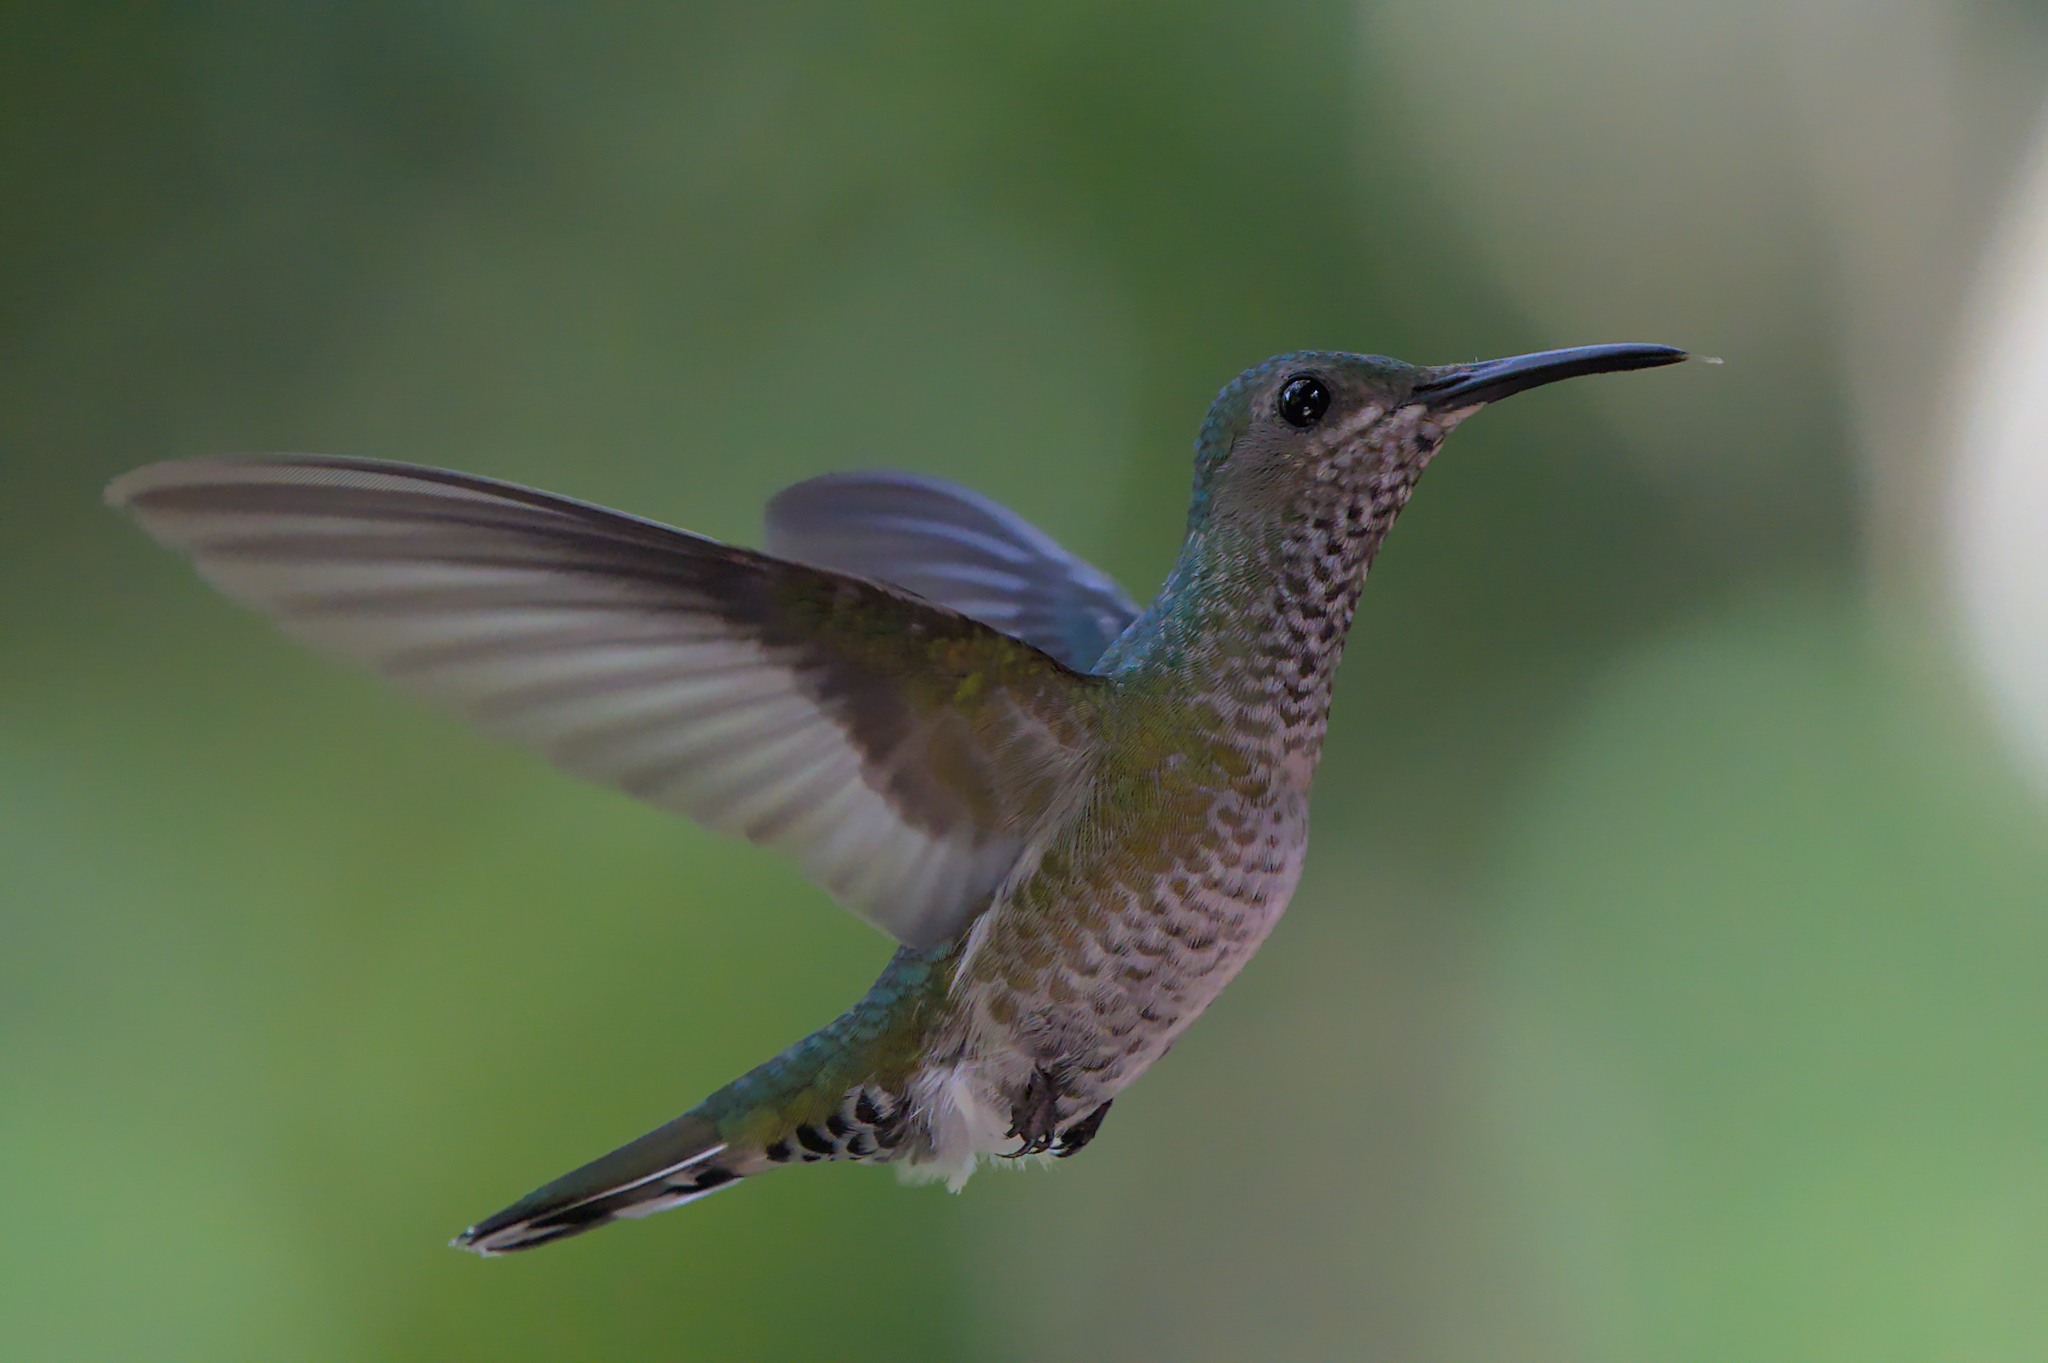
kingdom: Animalia
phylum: Chordata
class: Aves
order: Apodiformes
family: Trochilidae
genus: Florisuga
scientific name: Florisuga mellivora
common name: White-necked jacobin
